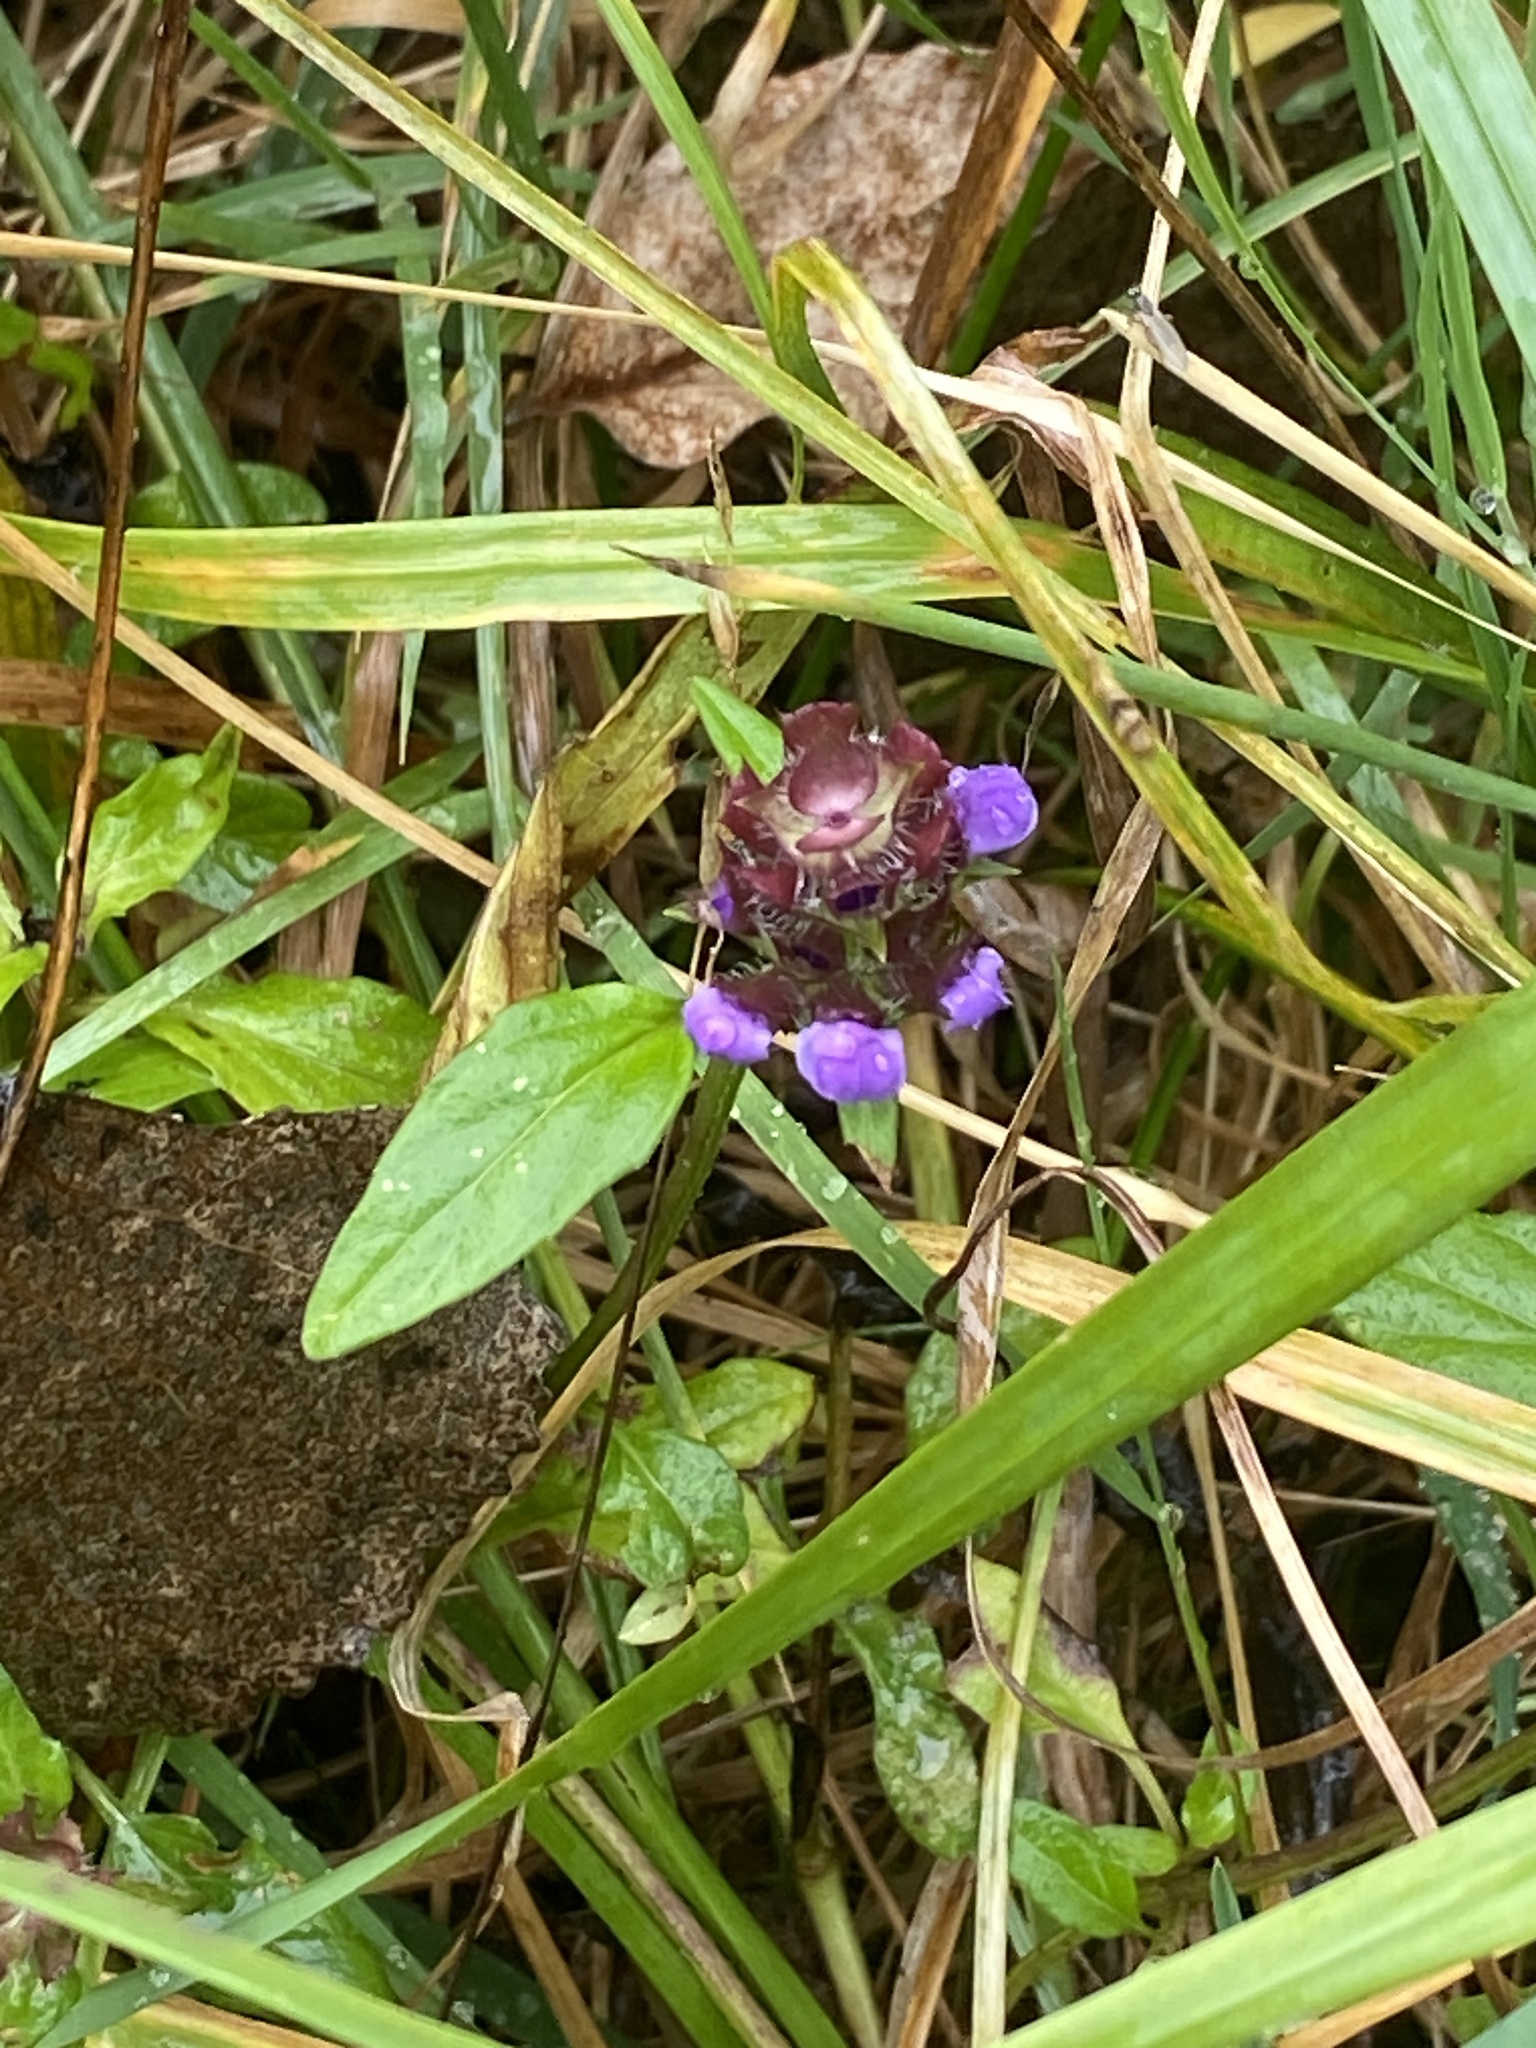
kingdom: Plantae
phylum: Tracheophyta
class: Magnoliopsida
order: Lamiales
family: Lamiaceae
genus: Prunella
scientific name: Prunella vulgaris
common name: Heal-all
